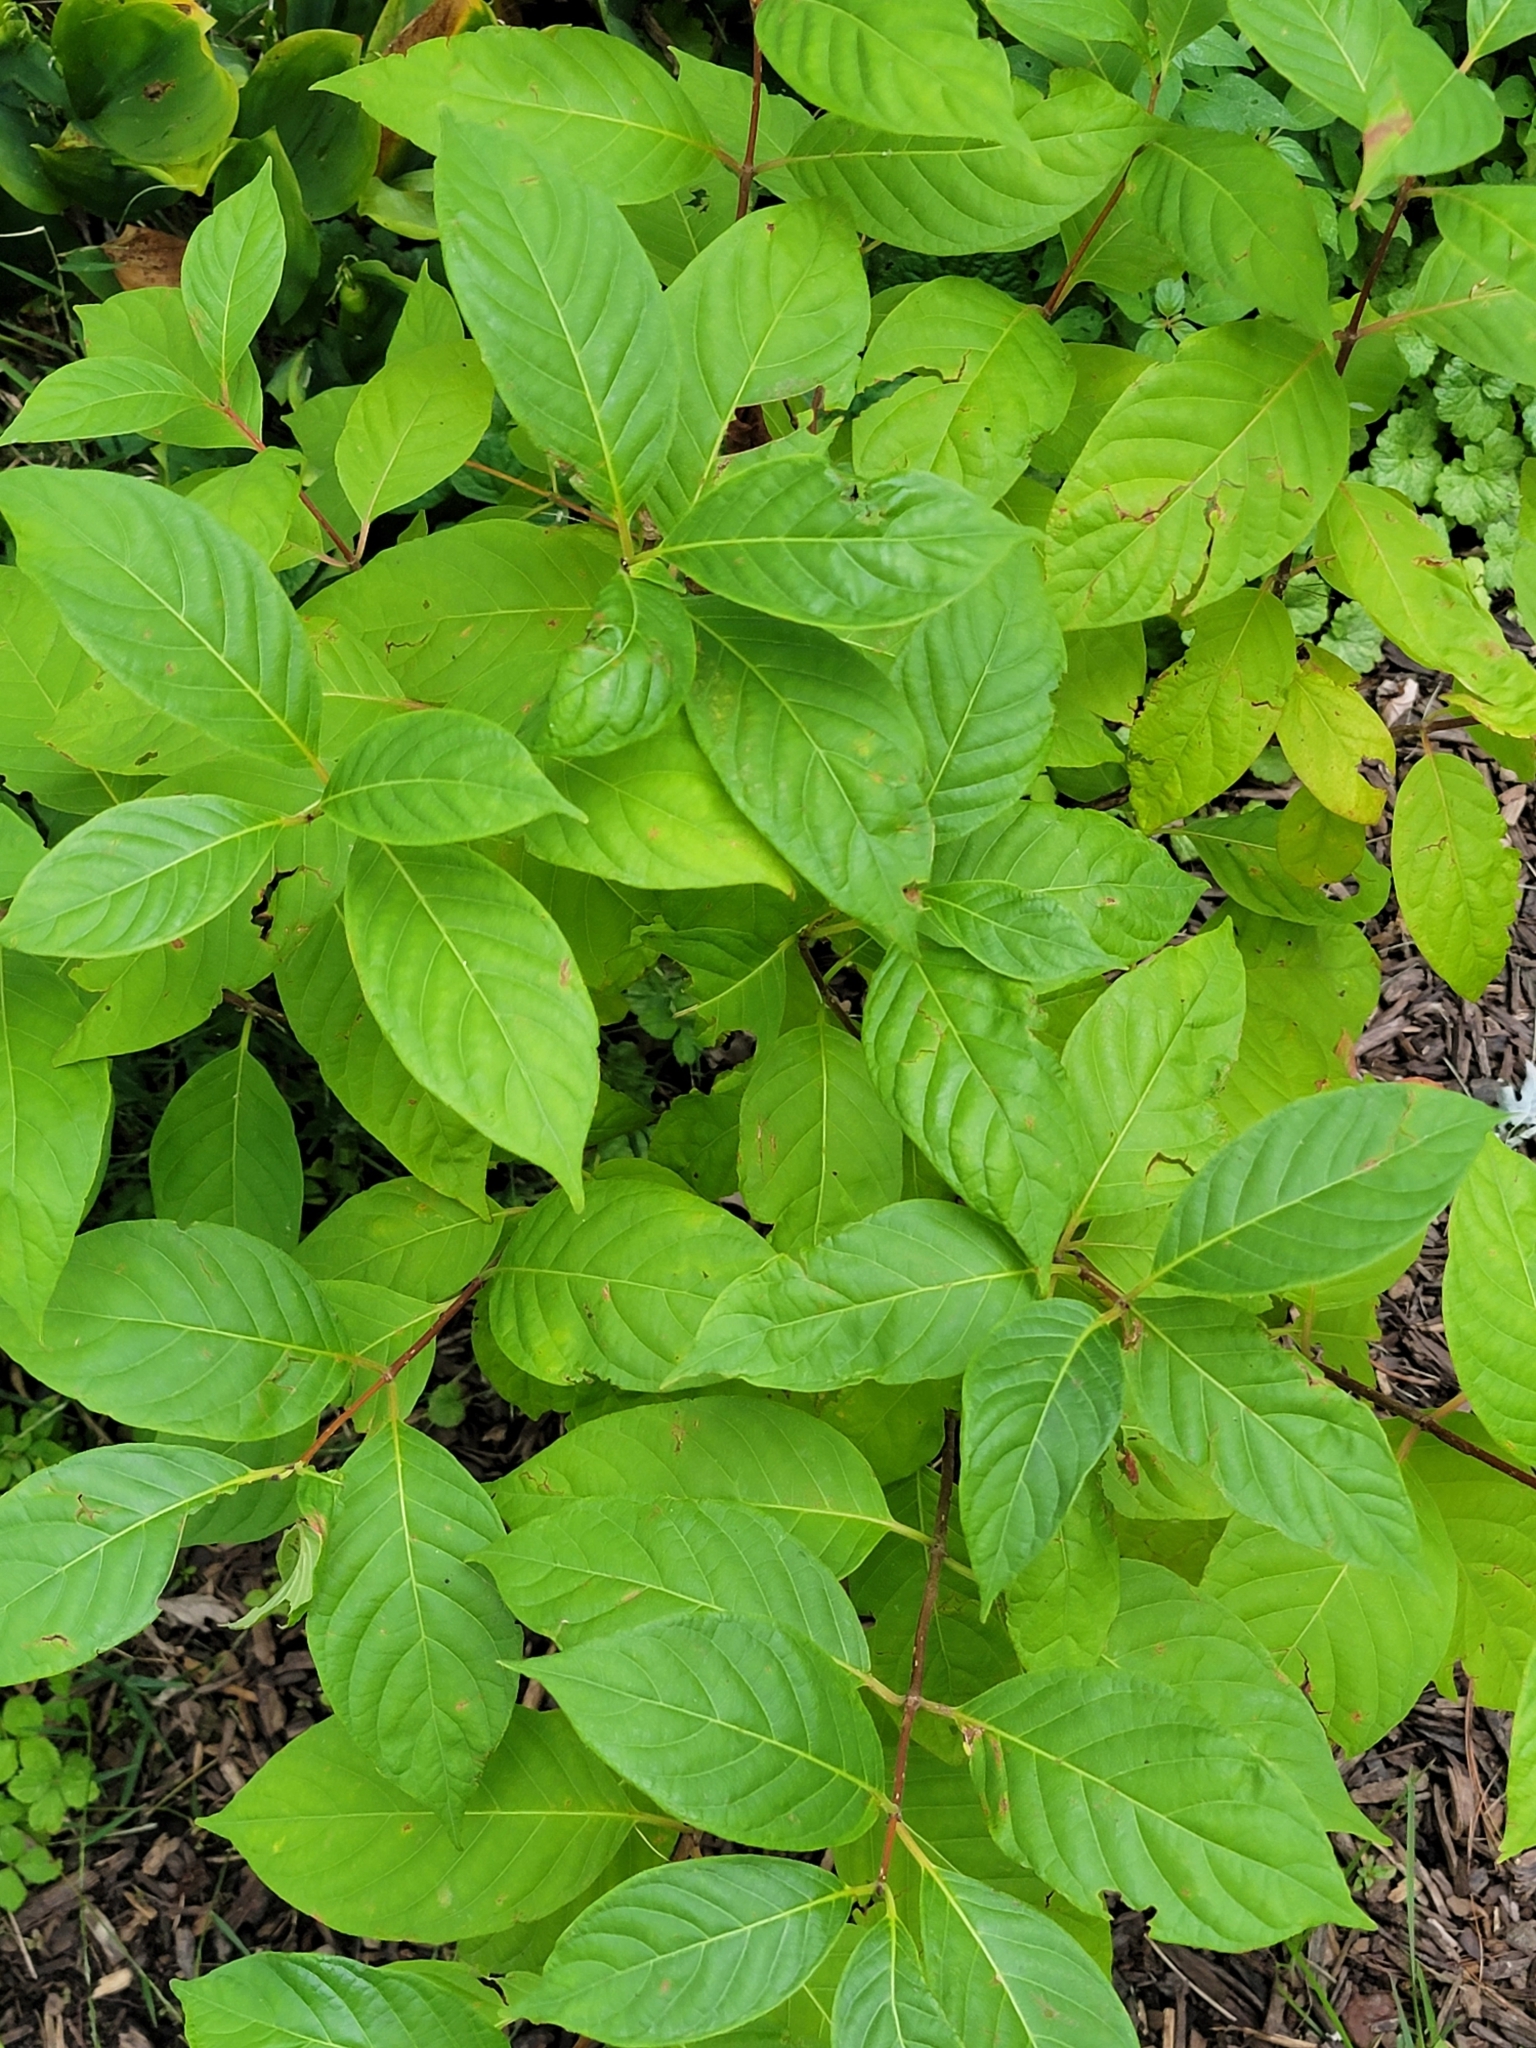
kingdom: Plantae
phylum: Tracheophyta
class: Magnoliopsida
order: Gentianales
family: Rubiaceae
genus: Cephalanthus
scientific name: Cephalanthus occidentalis
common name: Button-willow
